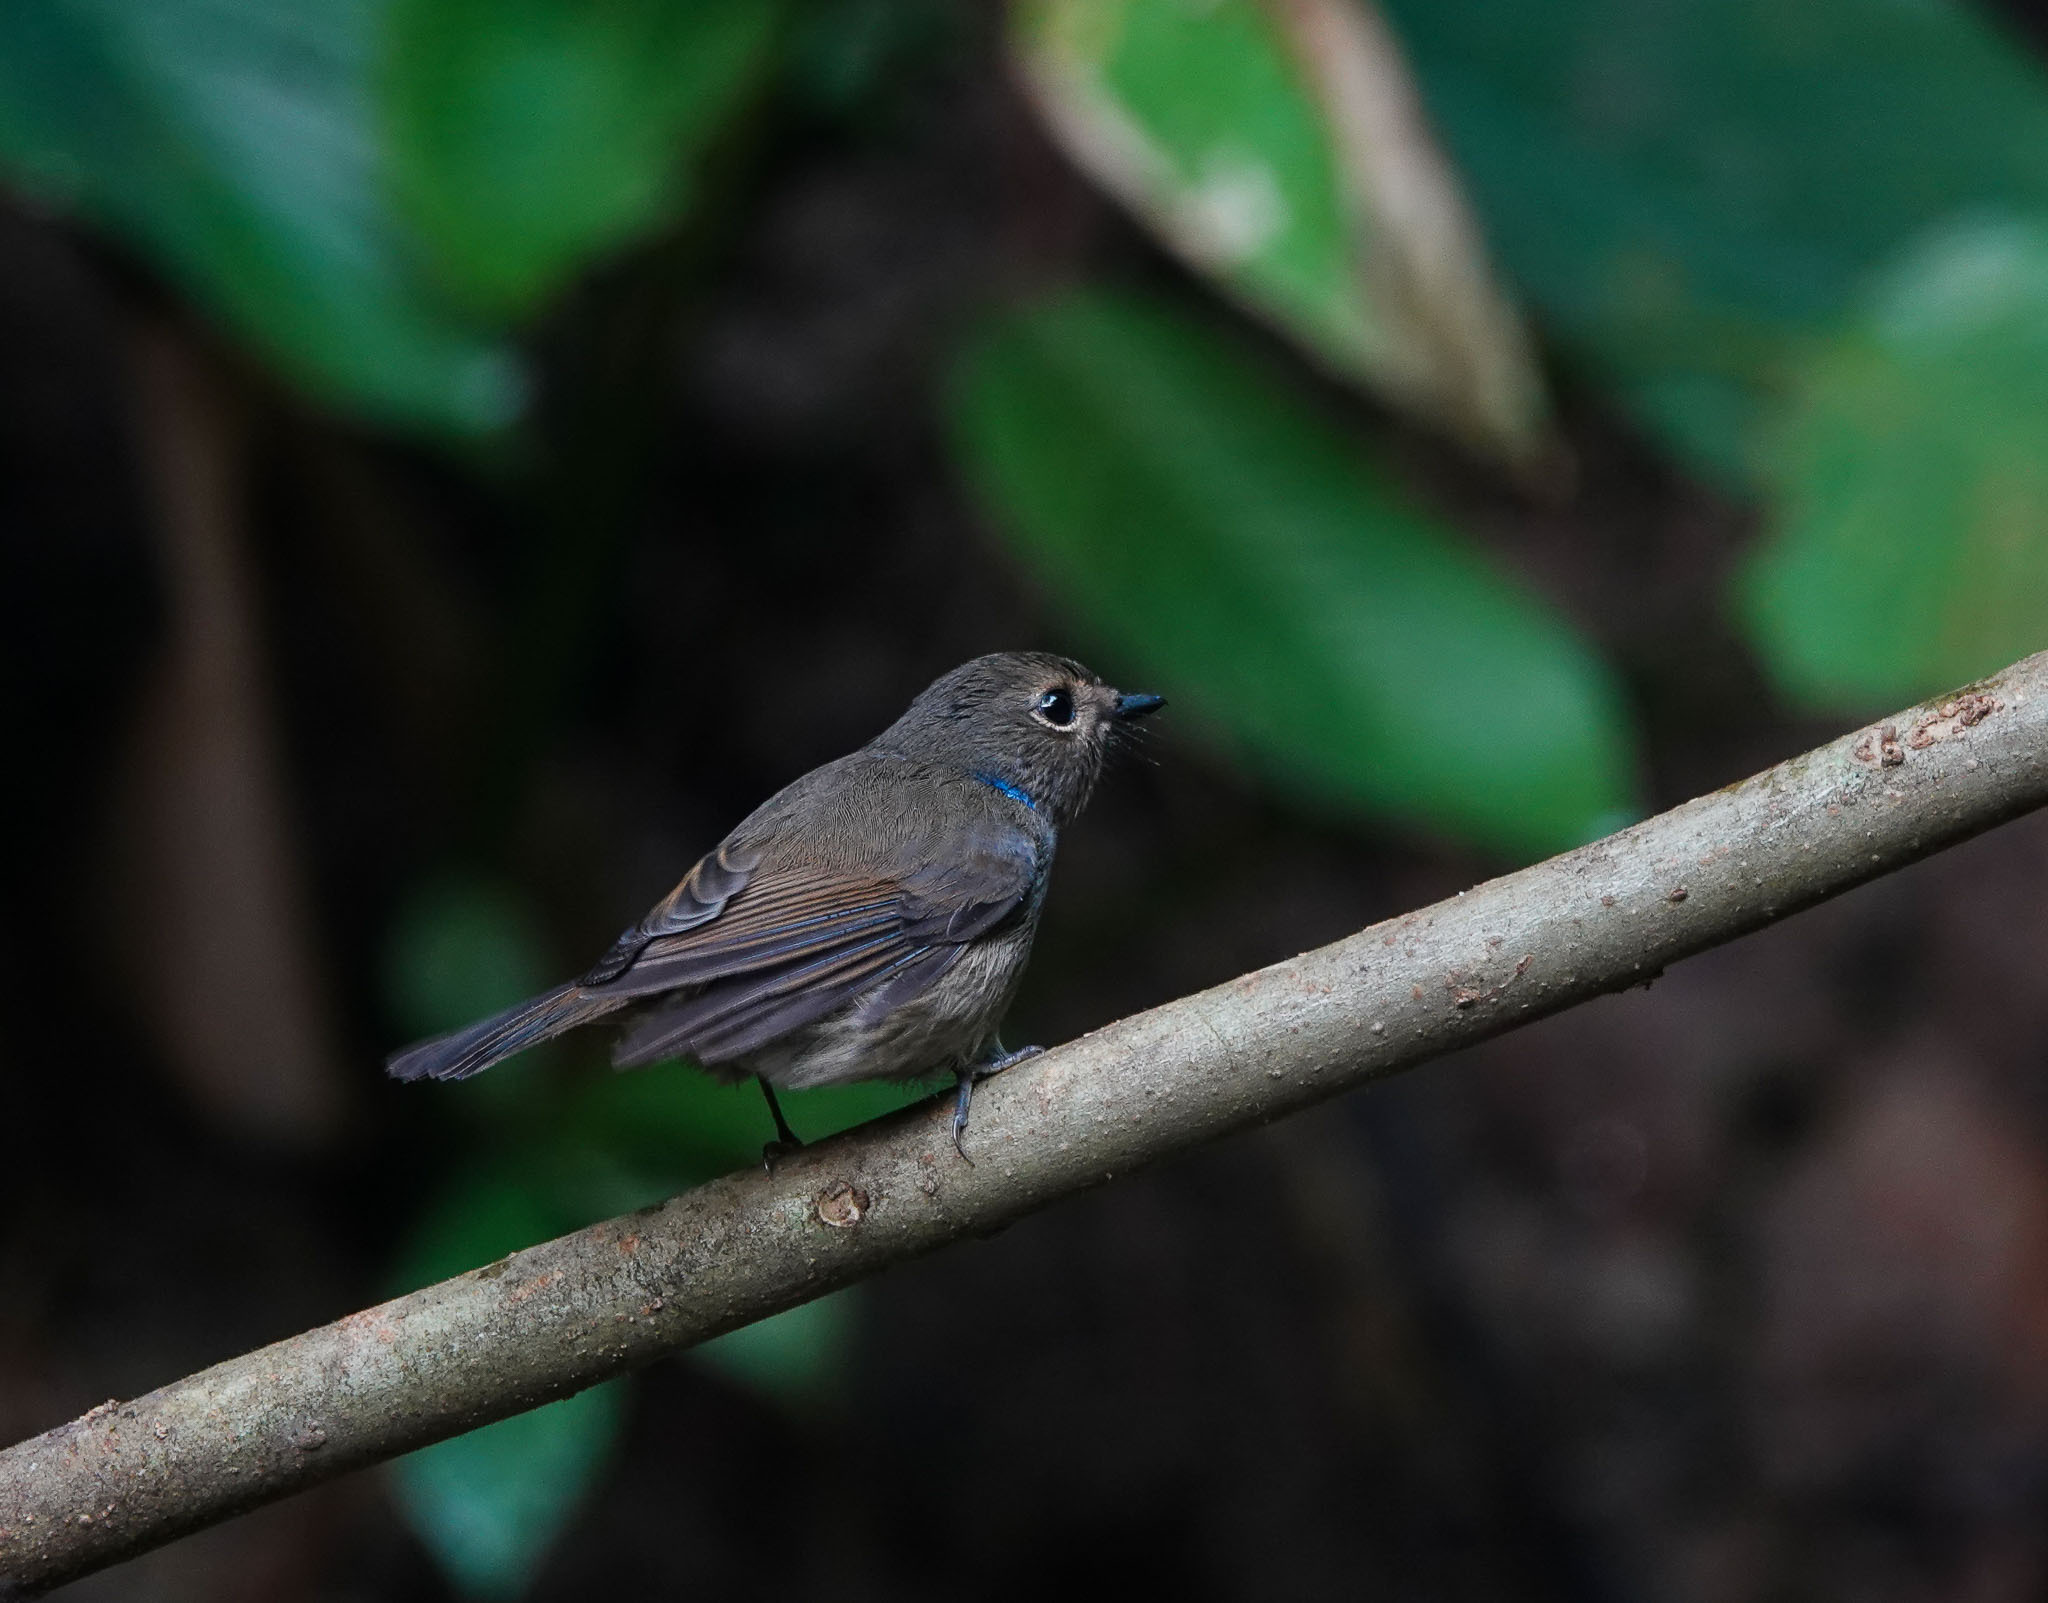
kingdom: Animalia
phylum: Chordata
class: Aves
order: Passeriformes
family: Muscicapidae
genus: Niltava
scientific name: Niltava macgrigoriae
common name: Small niltava
